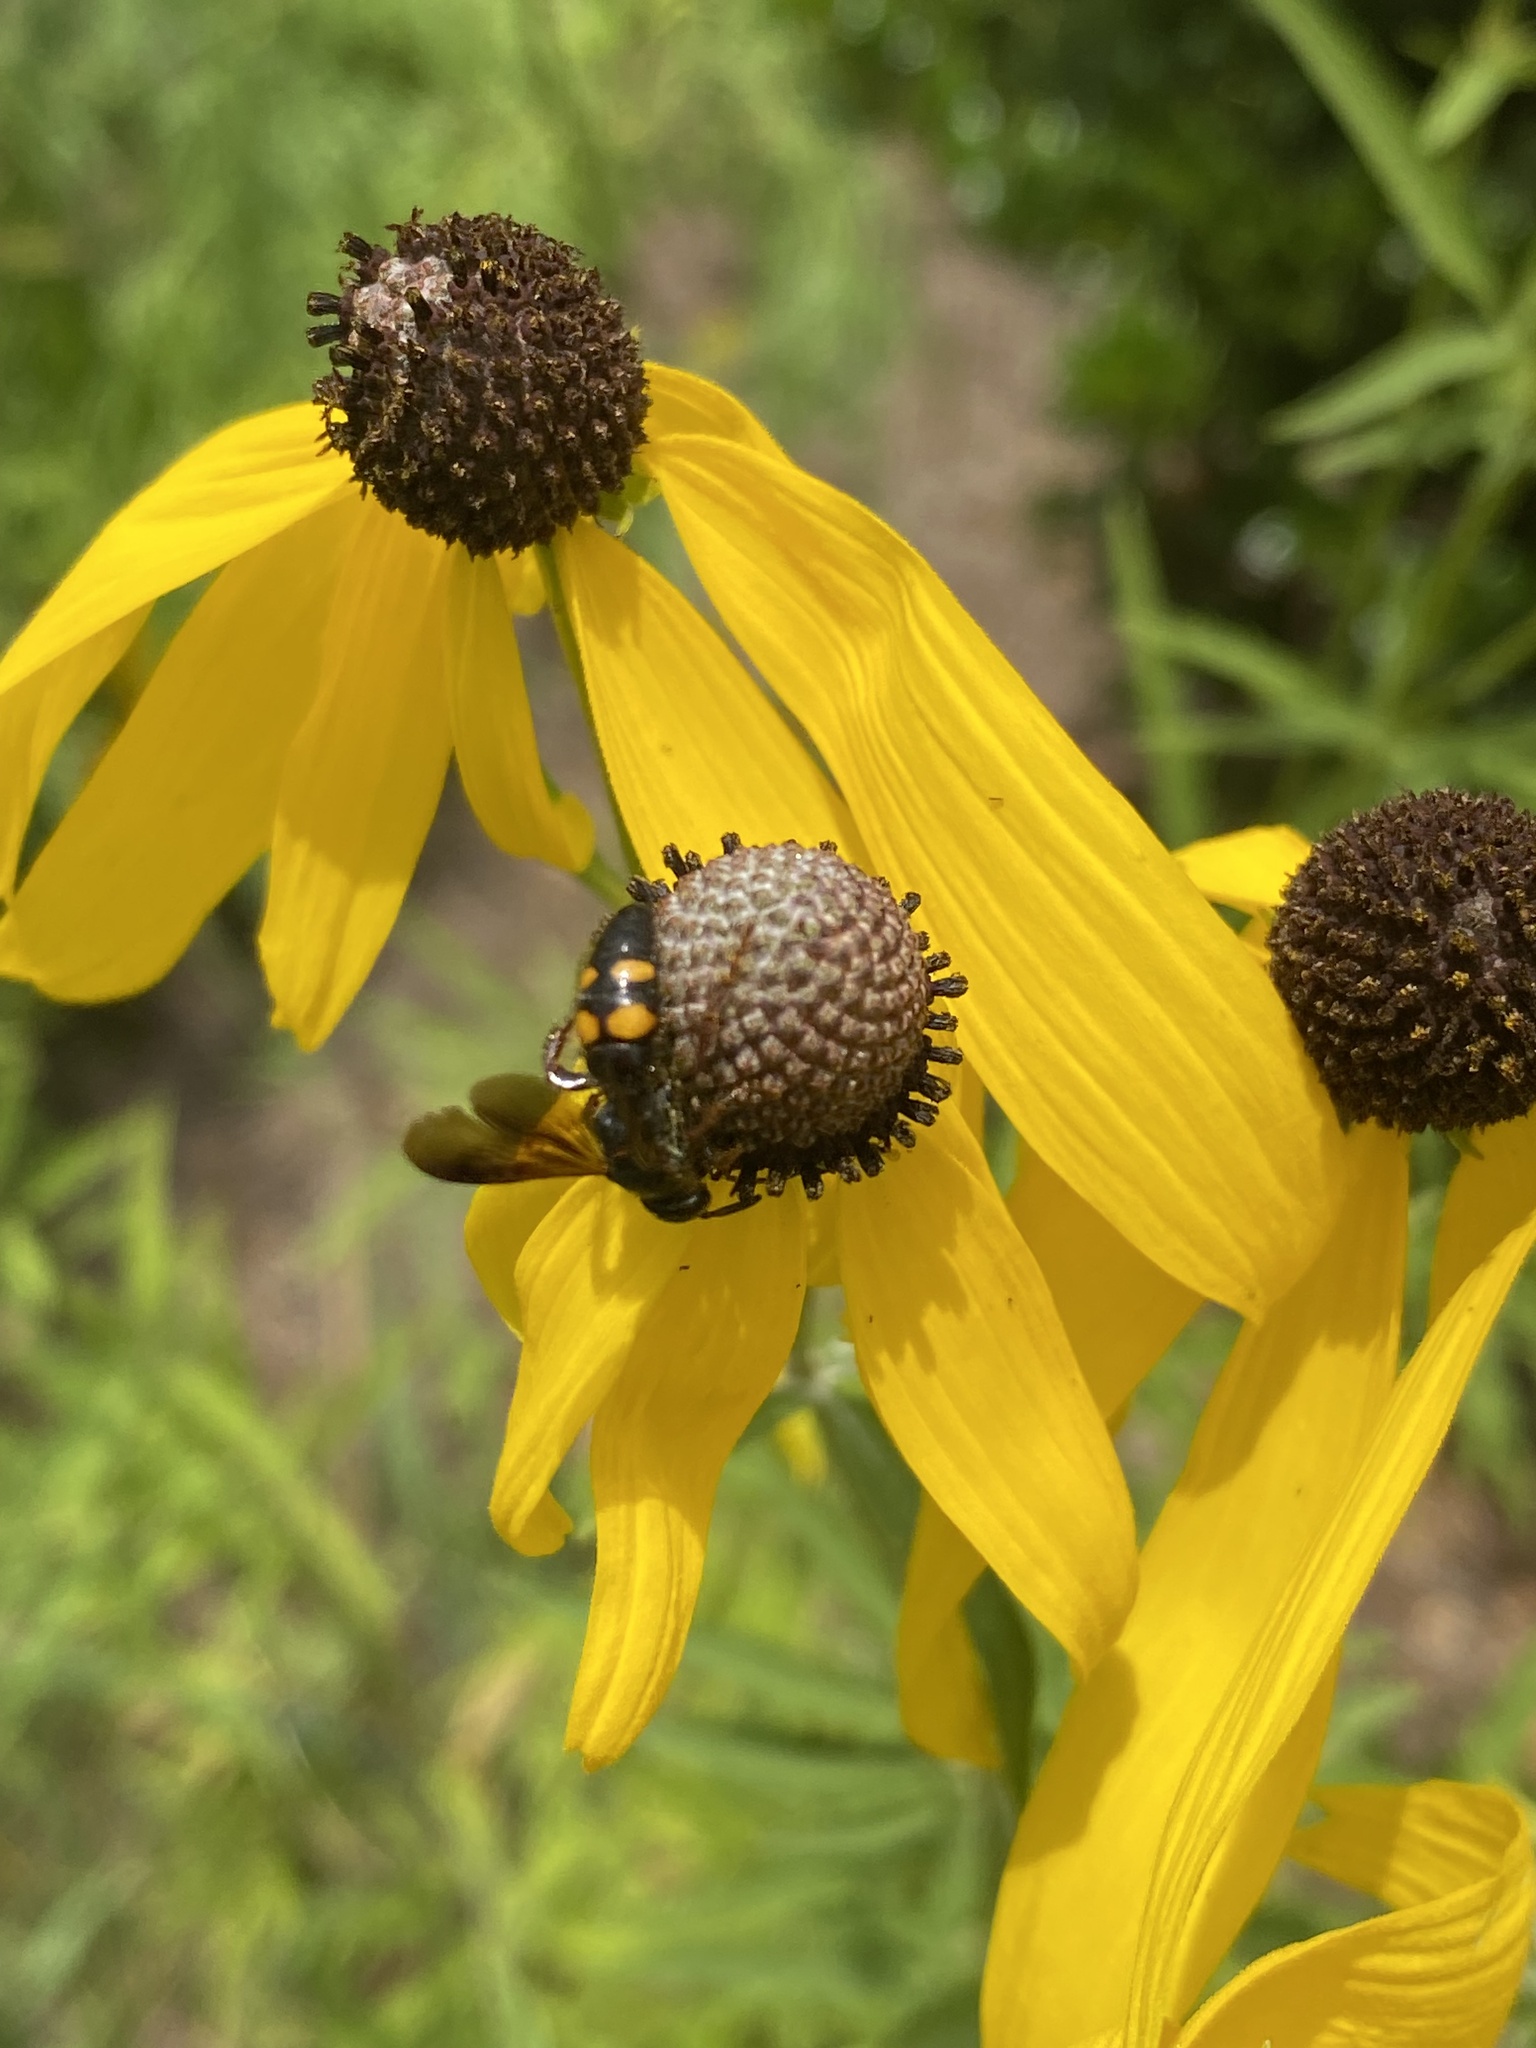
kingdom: Animalia
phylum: Arthropoda
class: Insecta
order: Hymenoptera
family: Scoliidae
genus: Scolia
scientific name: Scolia nobilitata
